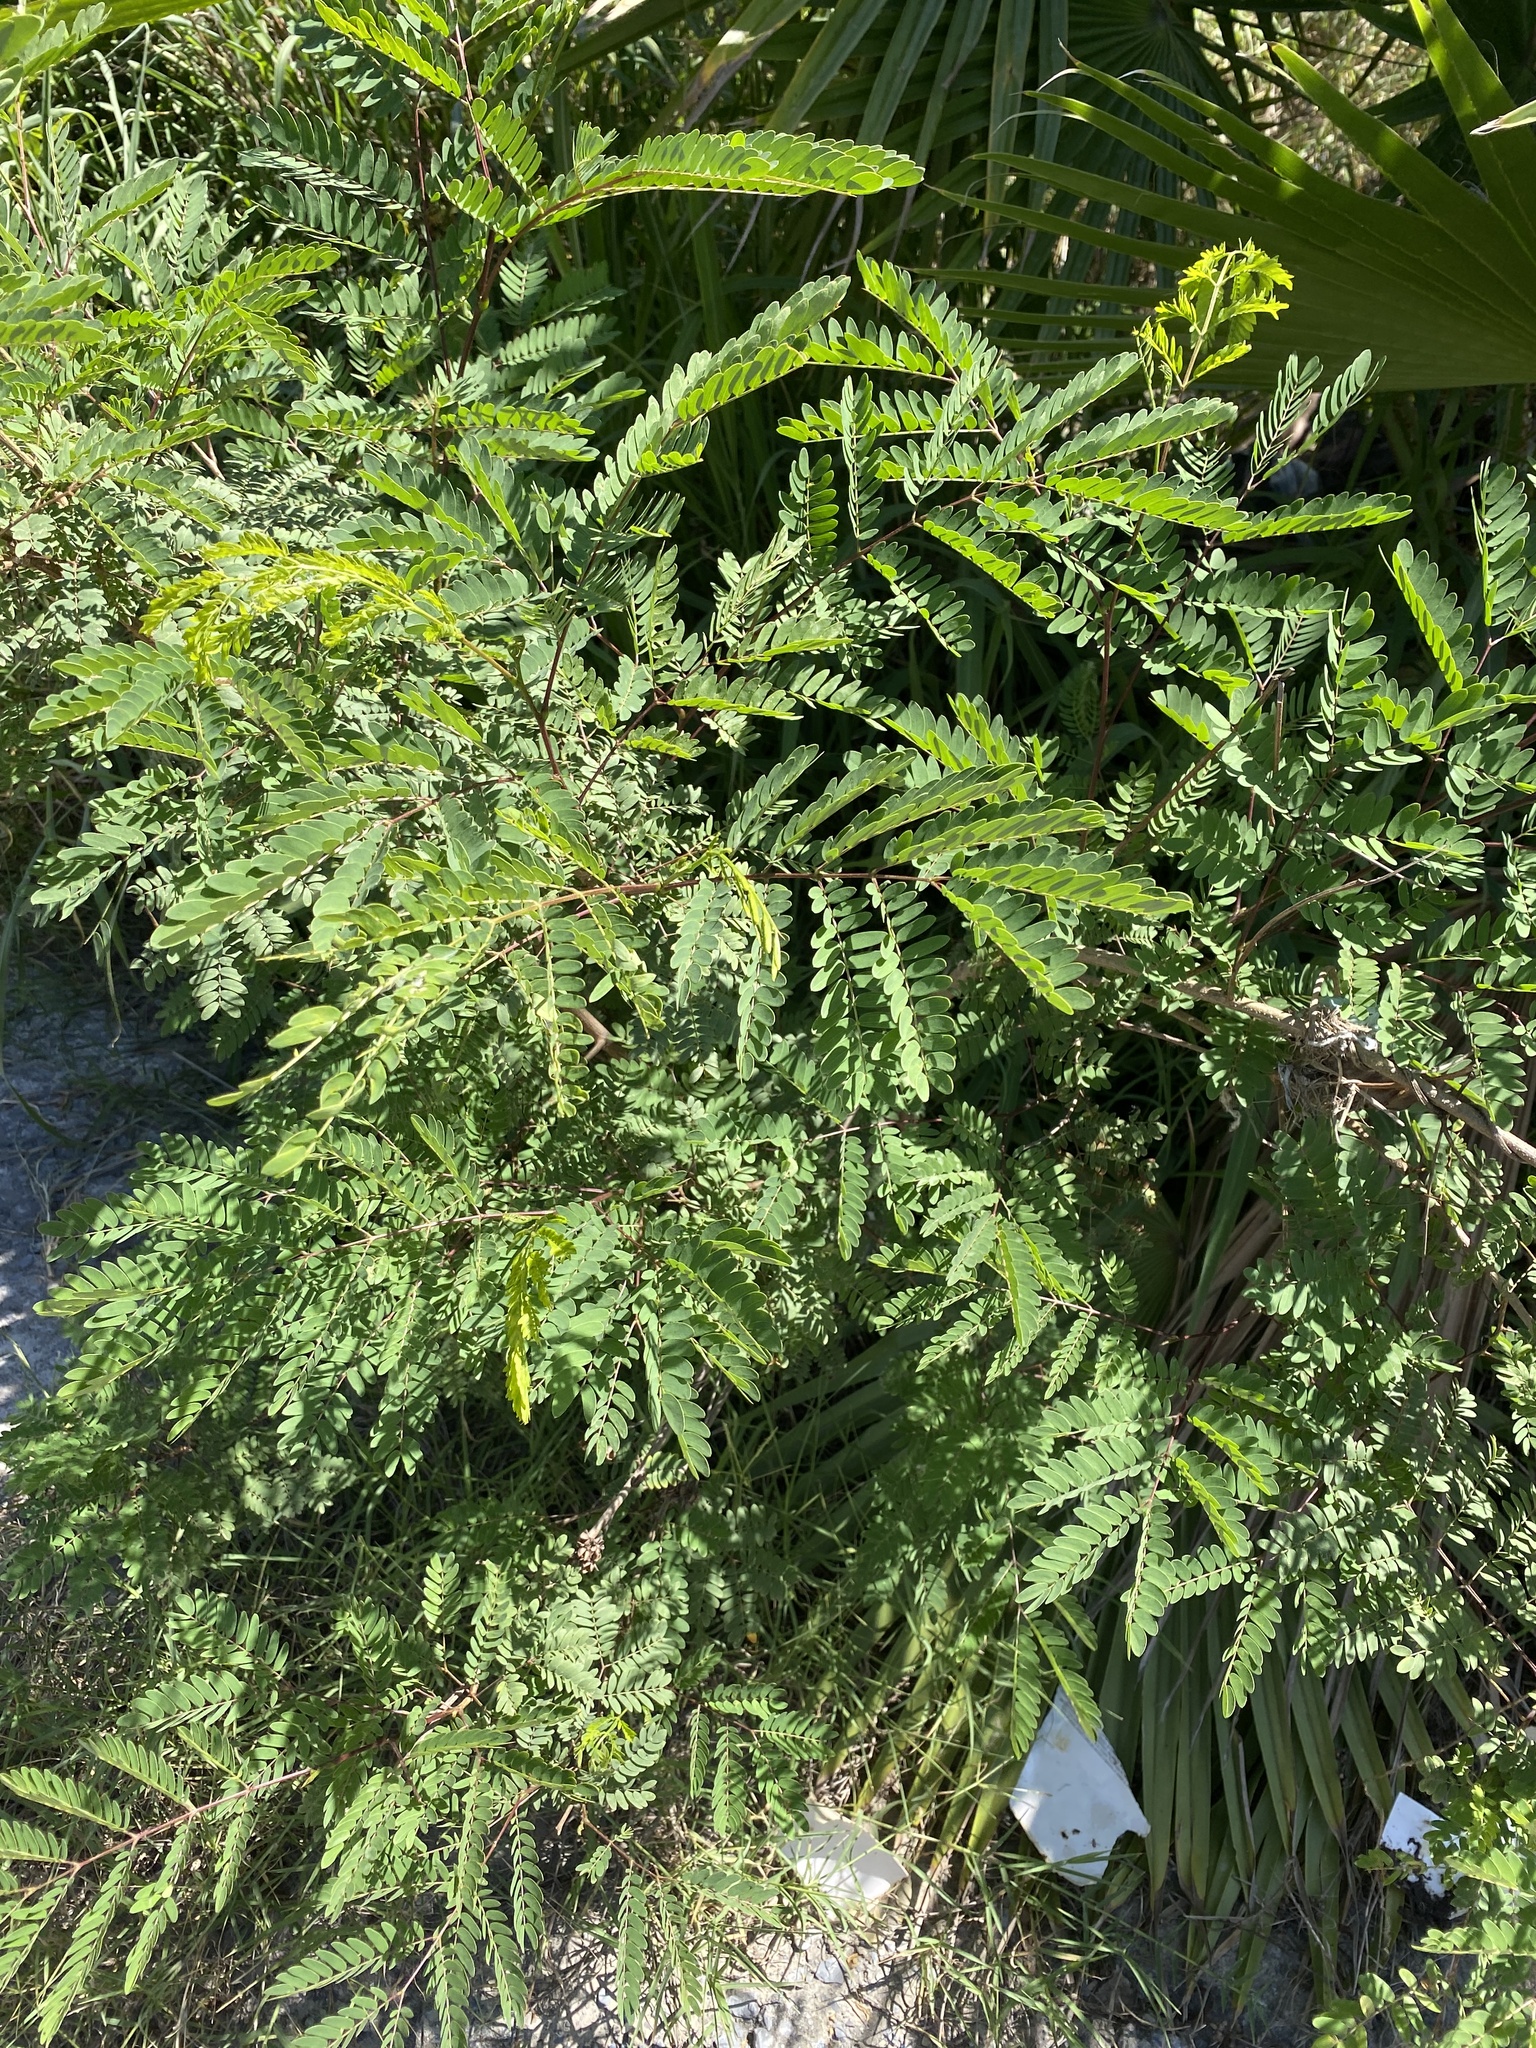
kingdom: Plantae
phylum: Tracheophyta
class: Magnoliopsida
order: Fabales
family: Fabaceae
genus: Leucaena
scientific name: Leucaena leucocephala
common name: White leadtree
